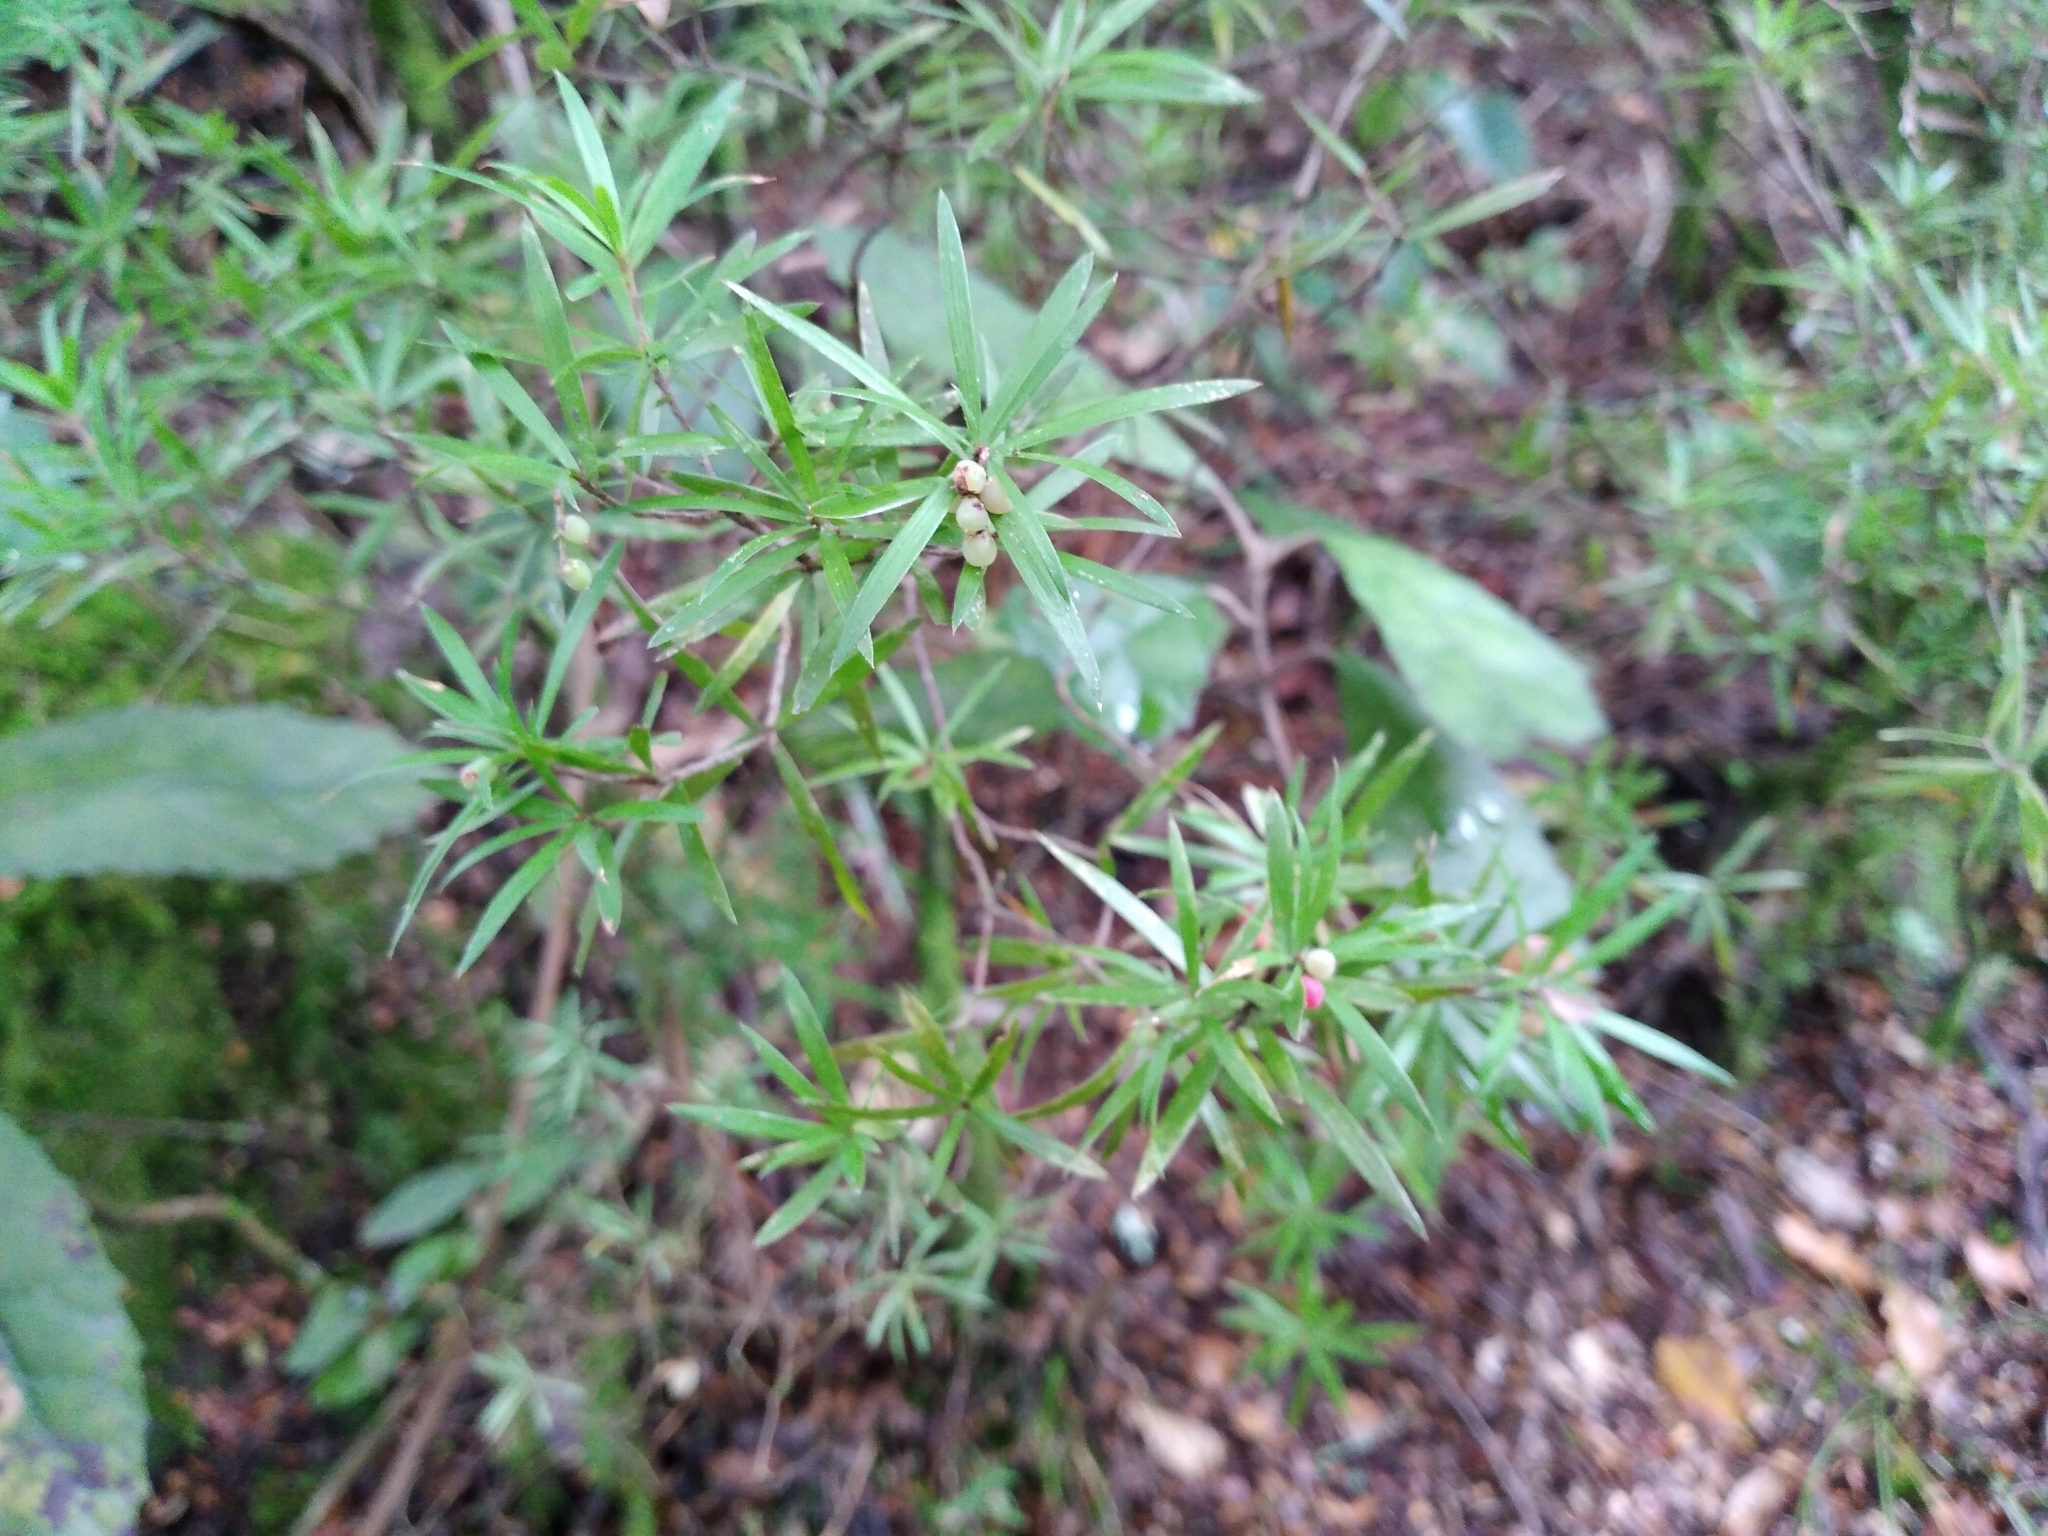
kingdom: Plantae
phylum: Tracheophyta
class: Magnoliopsida
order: Ericales
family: Ericaceae
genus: Leucopogon
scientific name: Leucopogon fasciculatus
